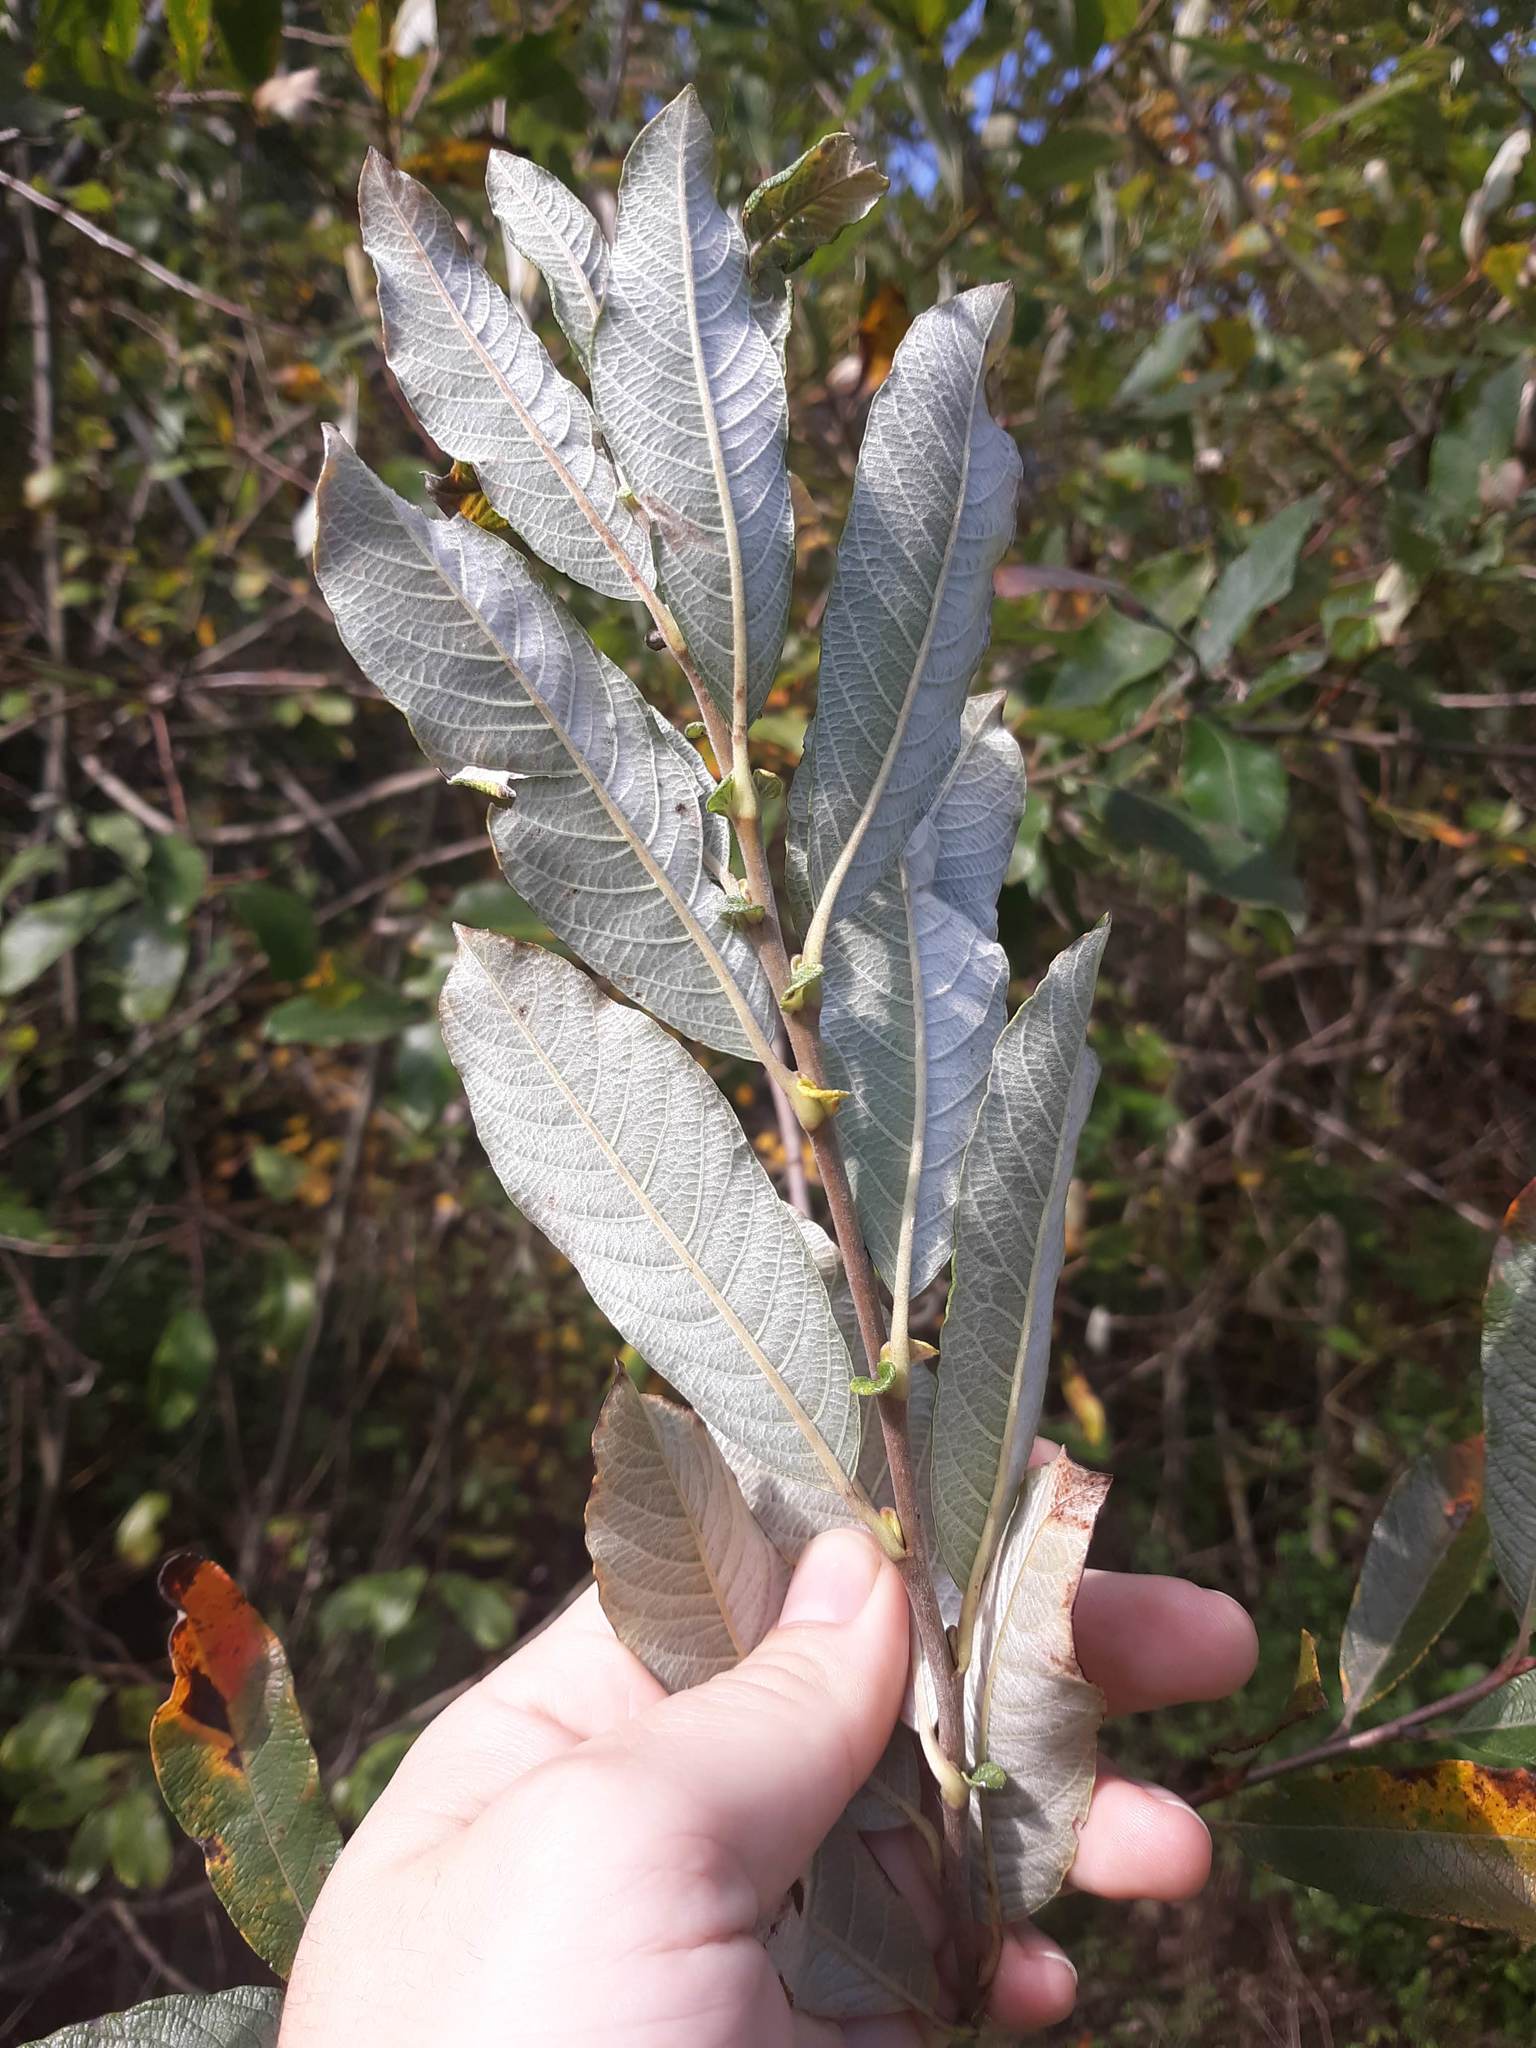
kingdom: Plantae
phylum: Tracheophyta
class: Magnoliopsida
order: Malpighiales
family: Salicaceae
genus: Salix
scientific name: Salix sitchensis
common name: Sitka willow
